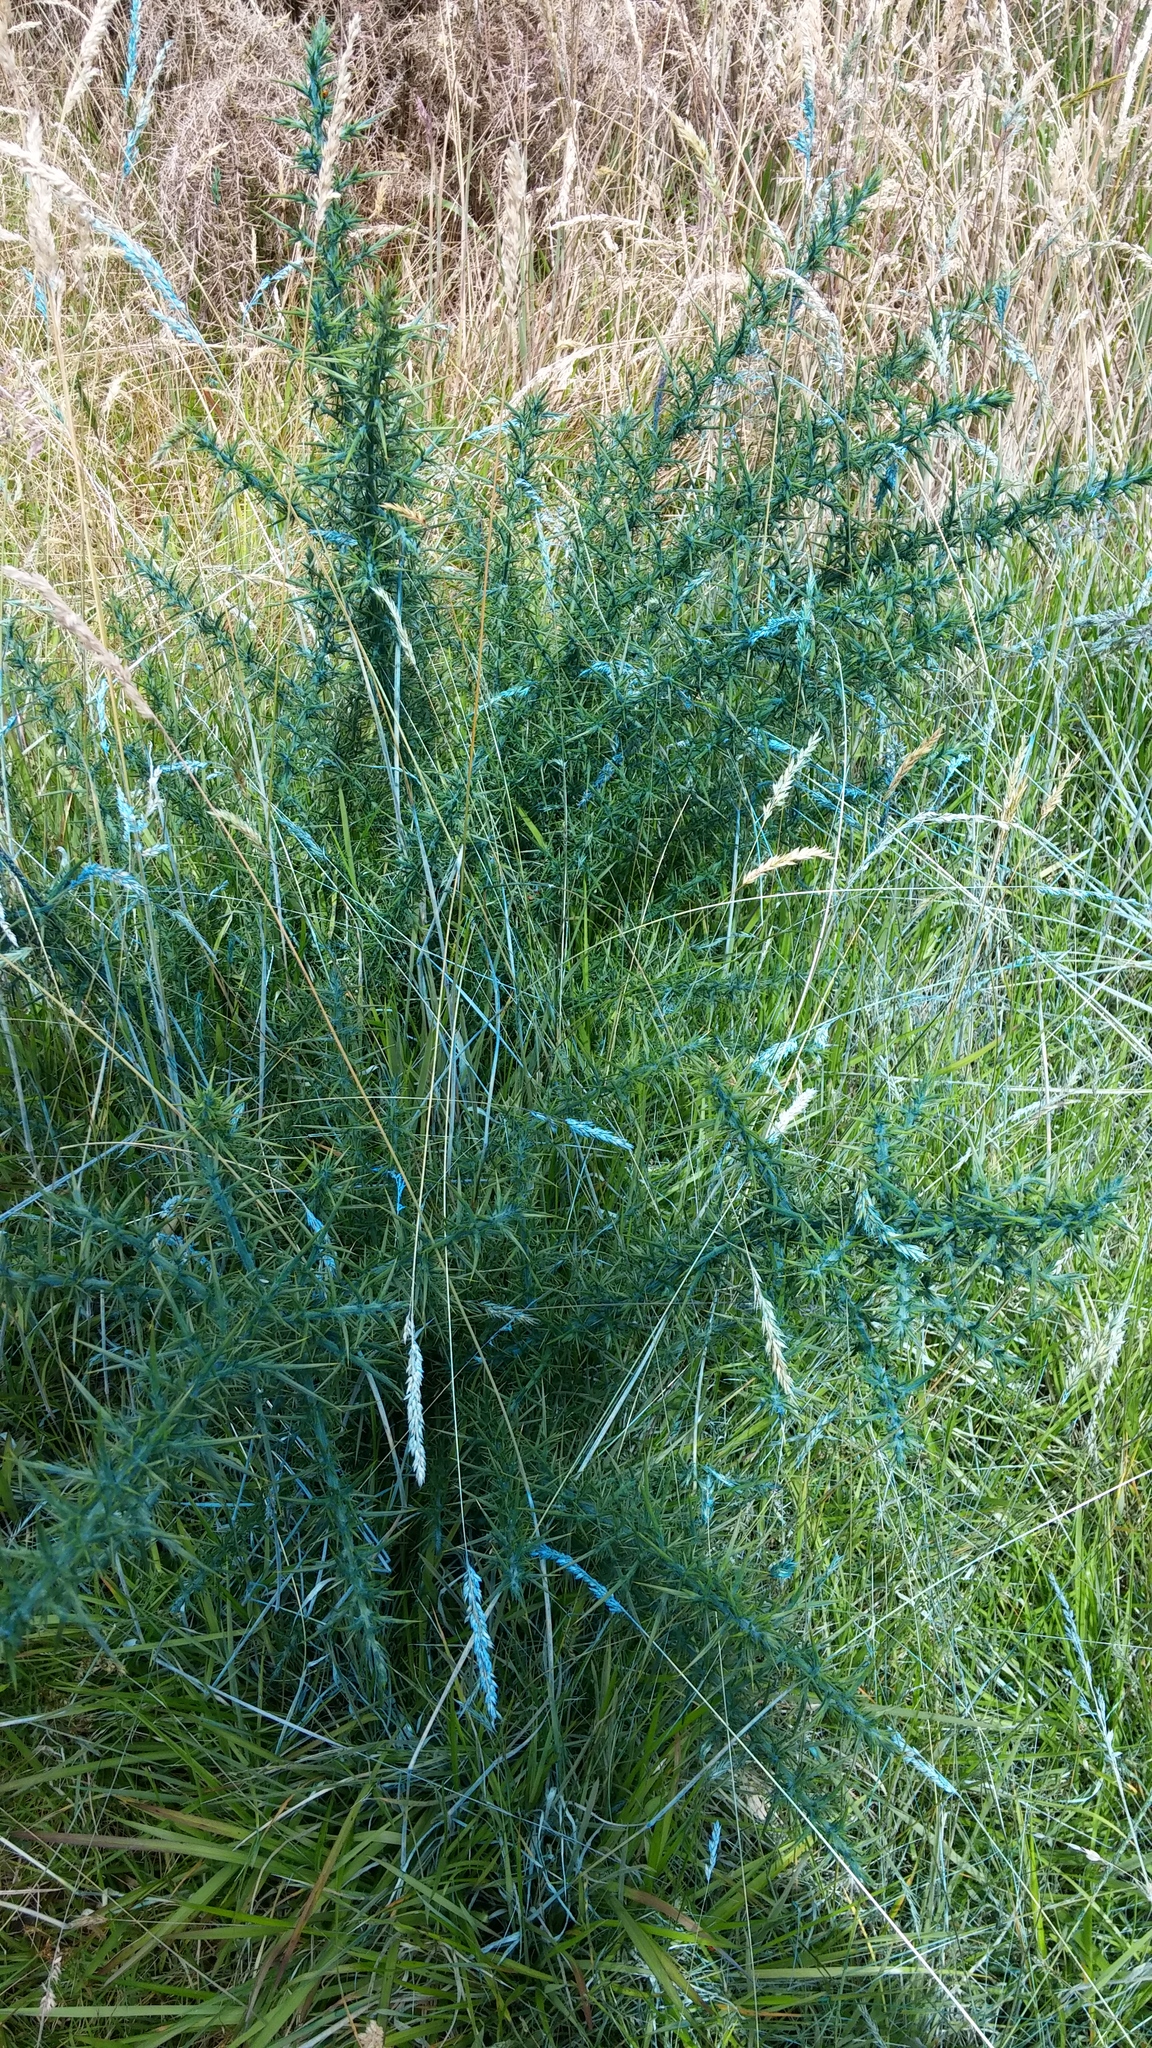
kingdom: Plantae
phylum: Tracheophyta
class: Magnoliopsida
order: Fabales
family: Fabaceae
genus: Ulex
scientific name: Ulex europaeus
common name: Common gorse
